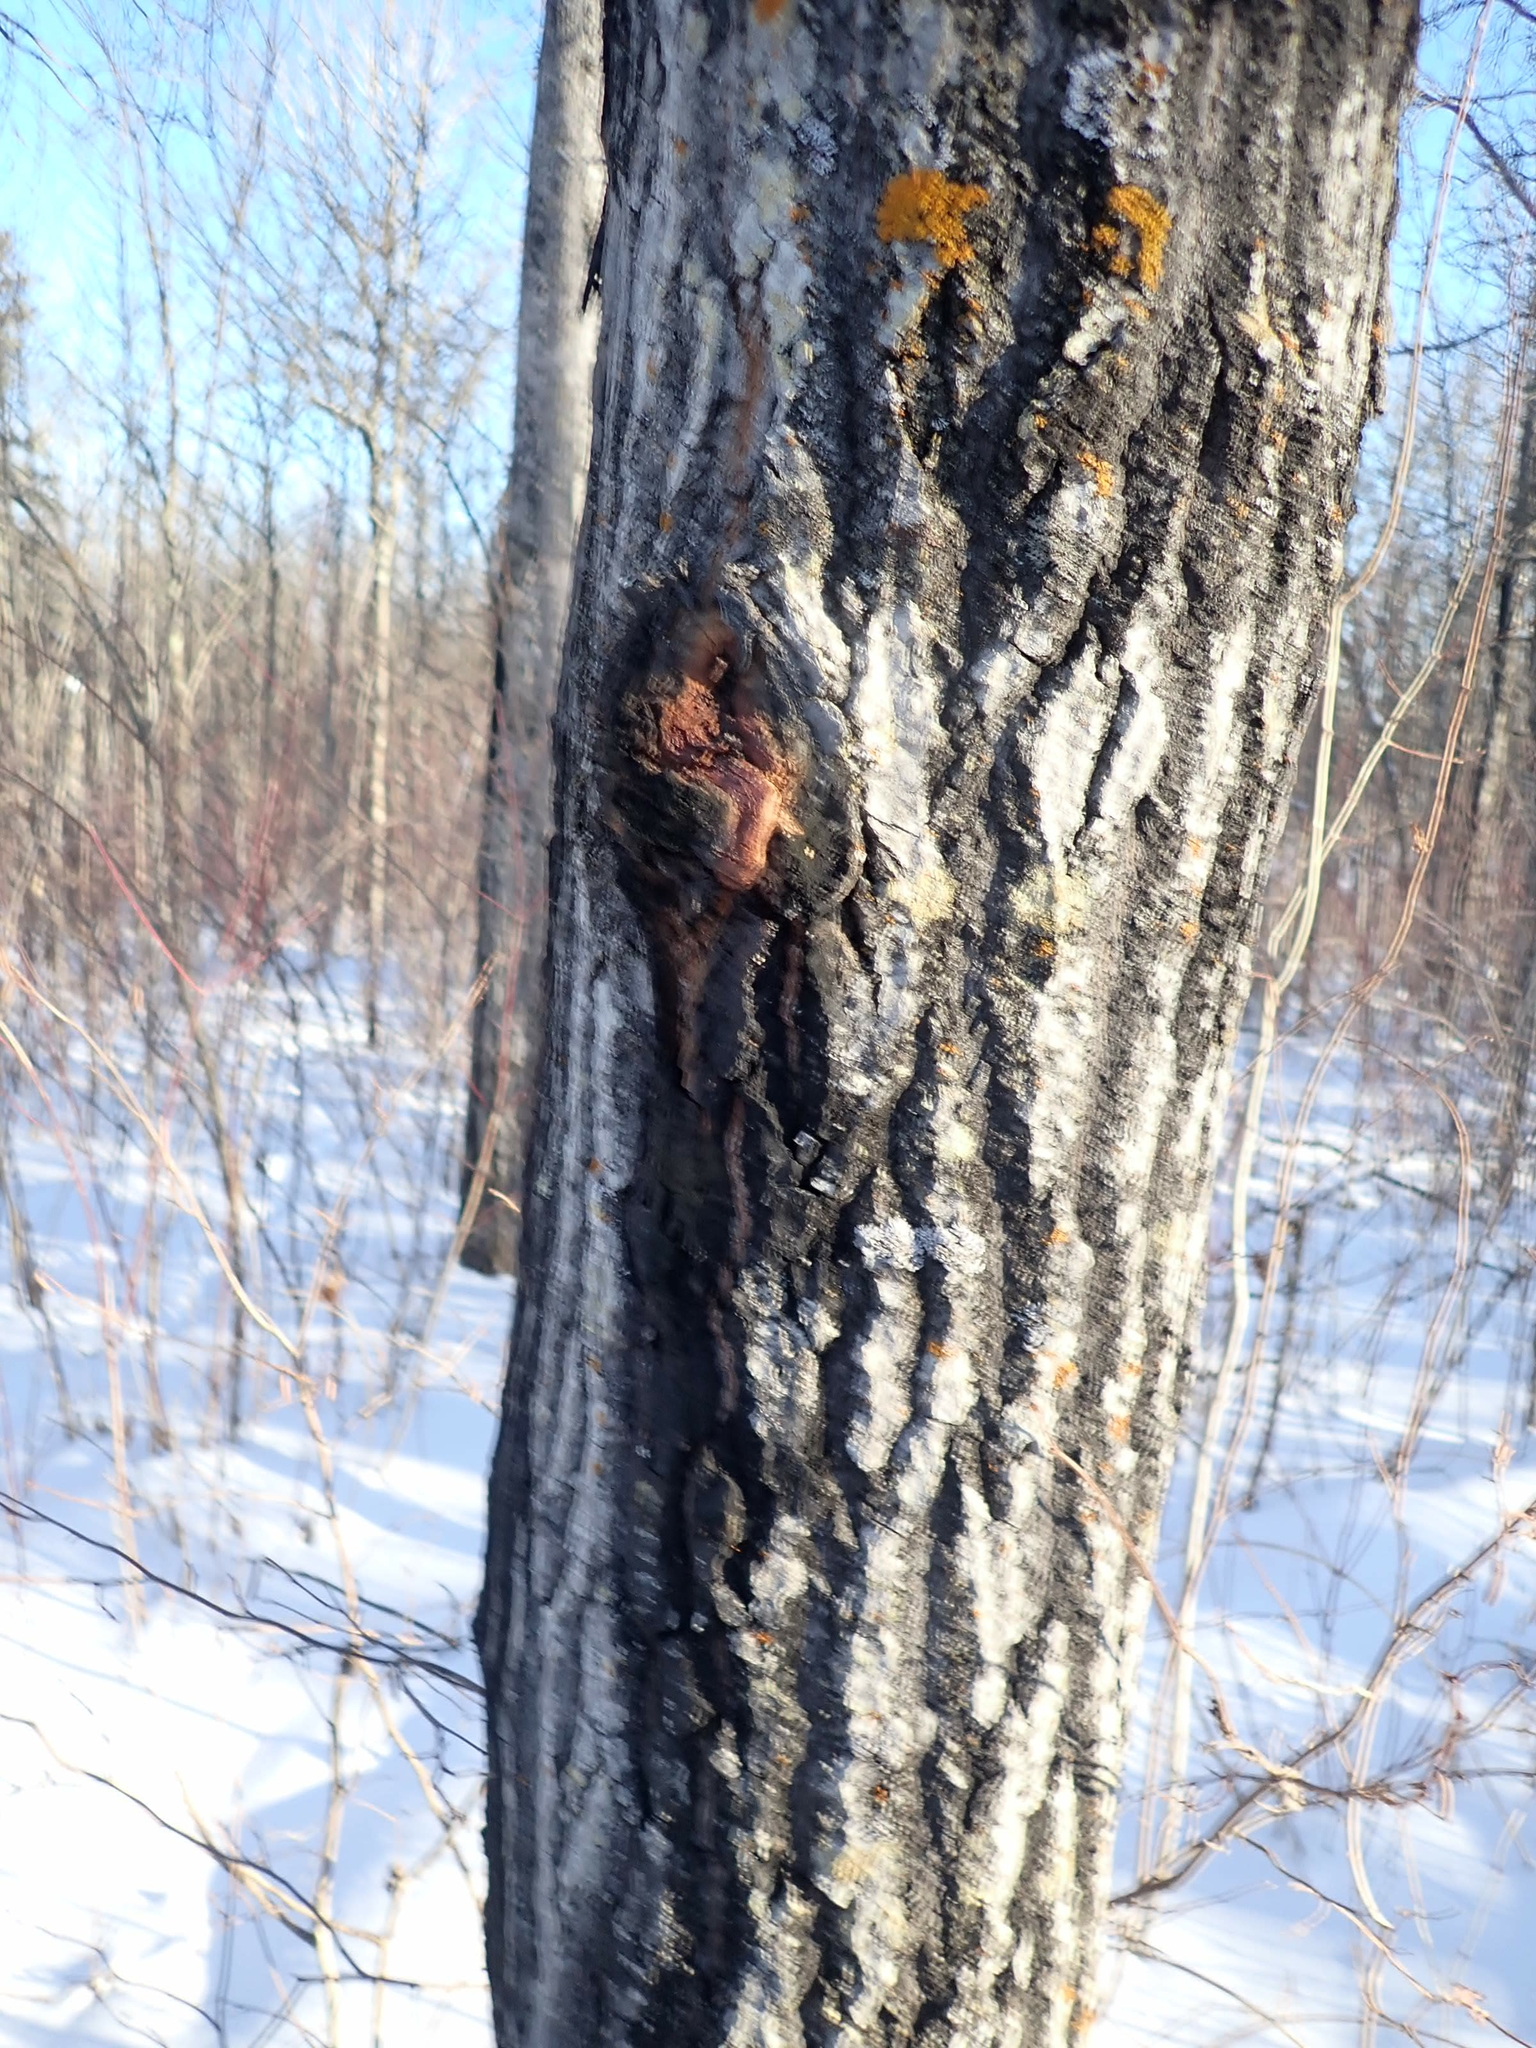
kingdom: Fungi
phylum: Ascomycota
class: Dothideomycetes
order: Botryosphaeriales
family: Botryosphaeriaceae
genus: Diplodia
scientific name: Diplodia tumefaciens
